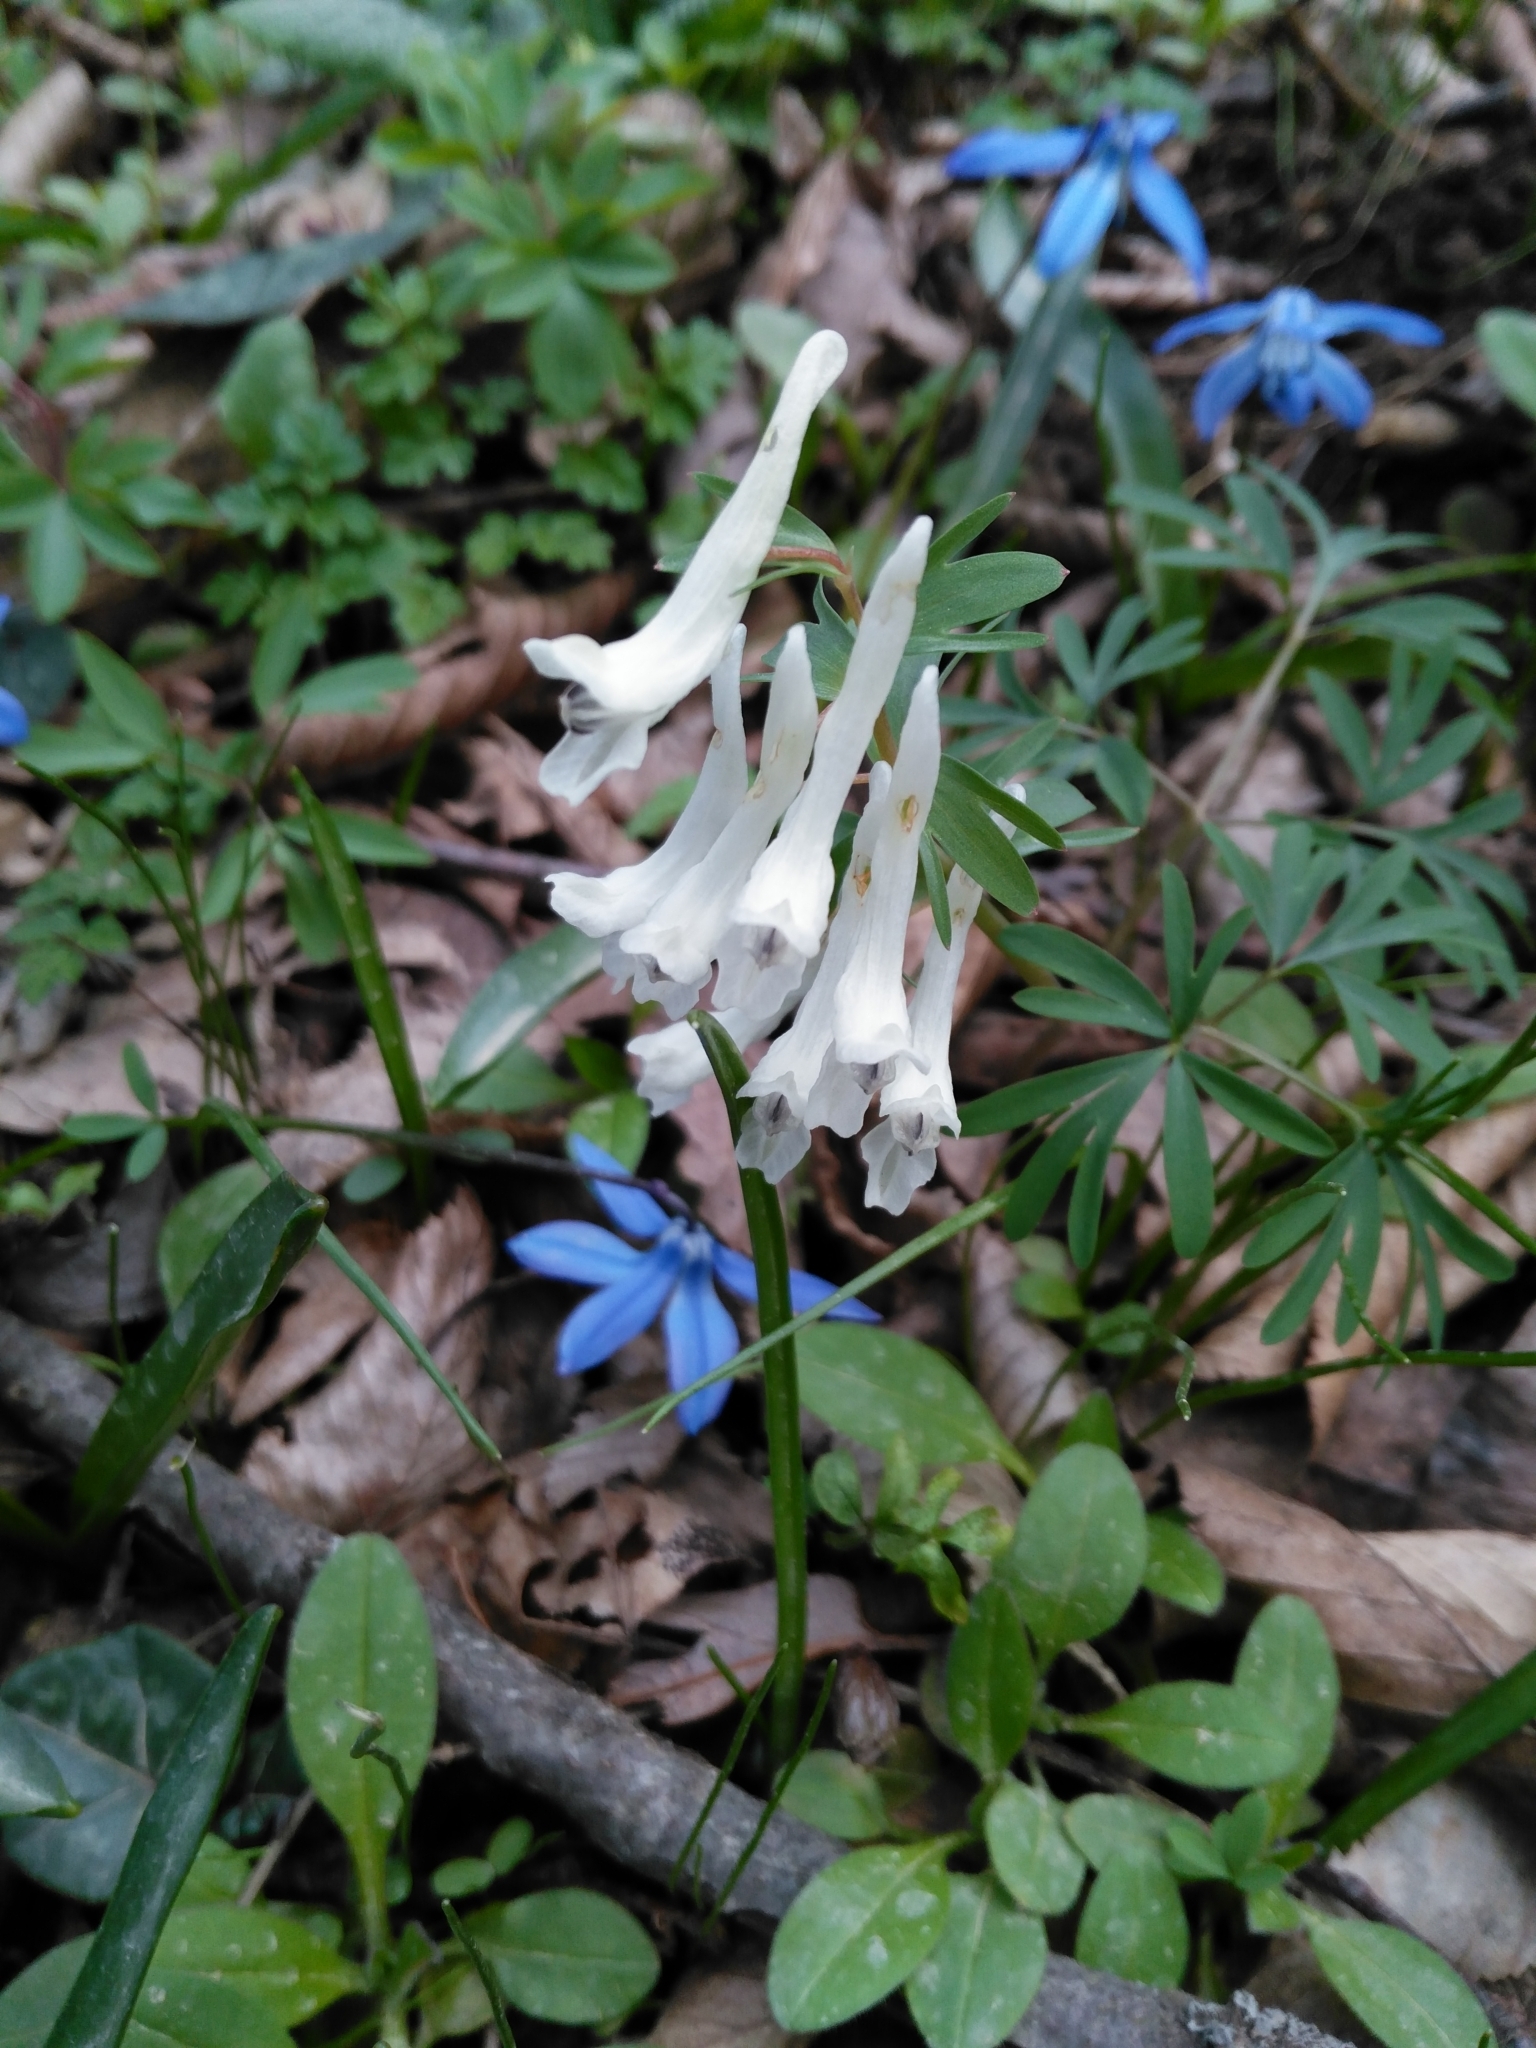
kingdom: Plantae
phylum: Tracheophyta
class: Magnoliopsida
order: Ranunculales
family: Papaveraceae
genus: Corydalis
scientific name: Corydalis angustifolia
